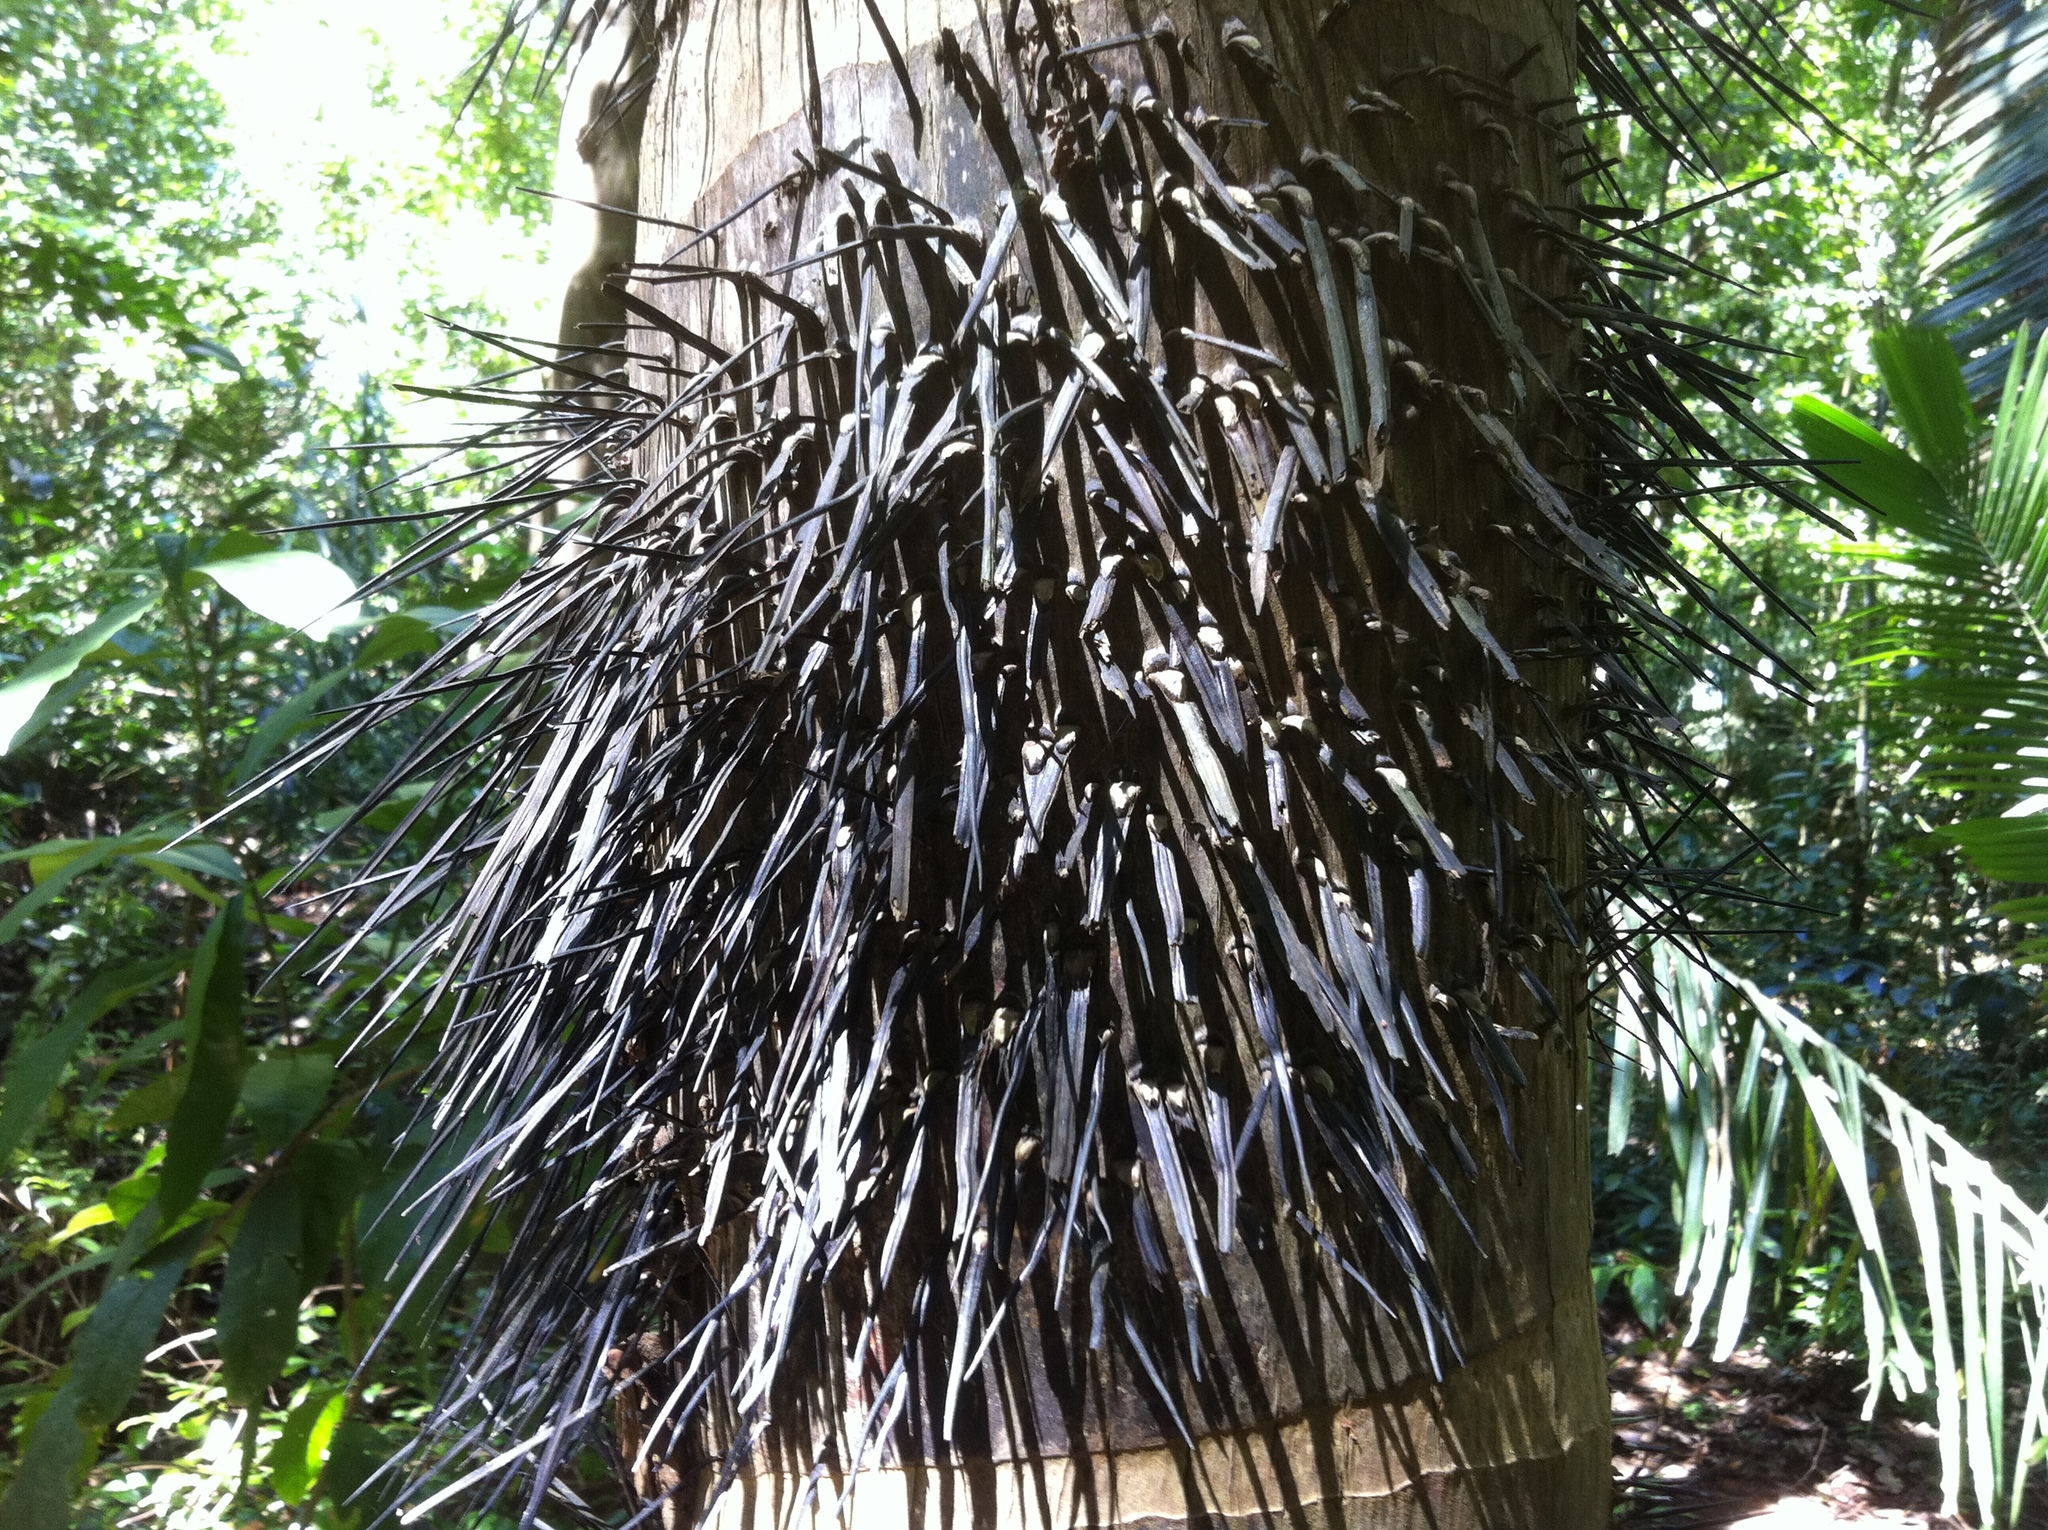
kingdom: Plantae
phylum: Tracheophyta
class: Liliopsida
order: Arecales
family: Arecaceae
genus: Astrocaryum
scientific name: Astrocaryum standleyanum
